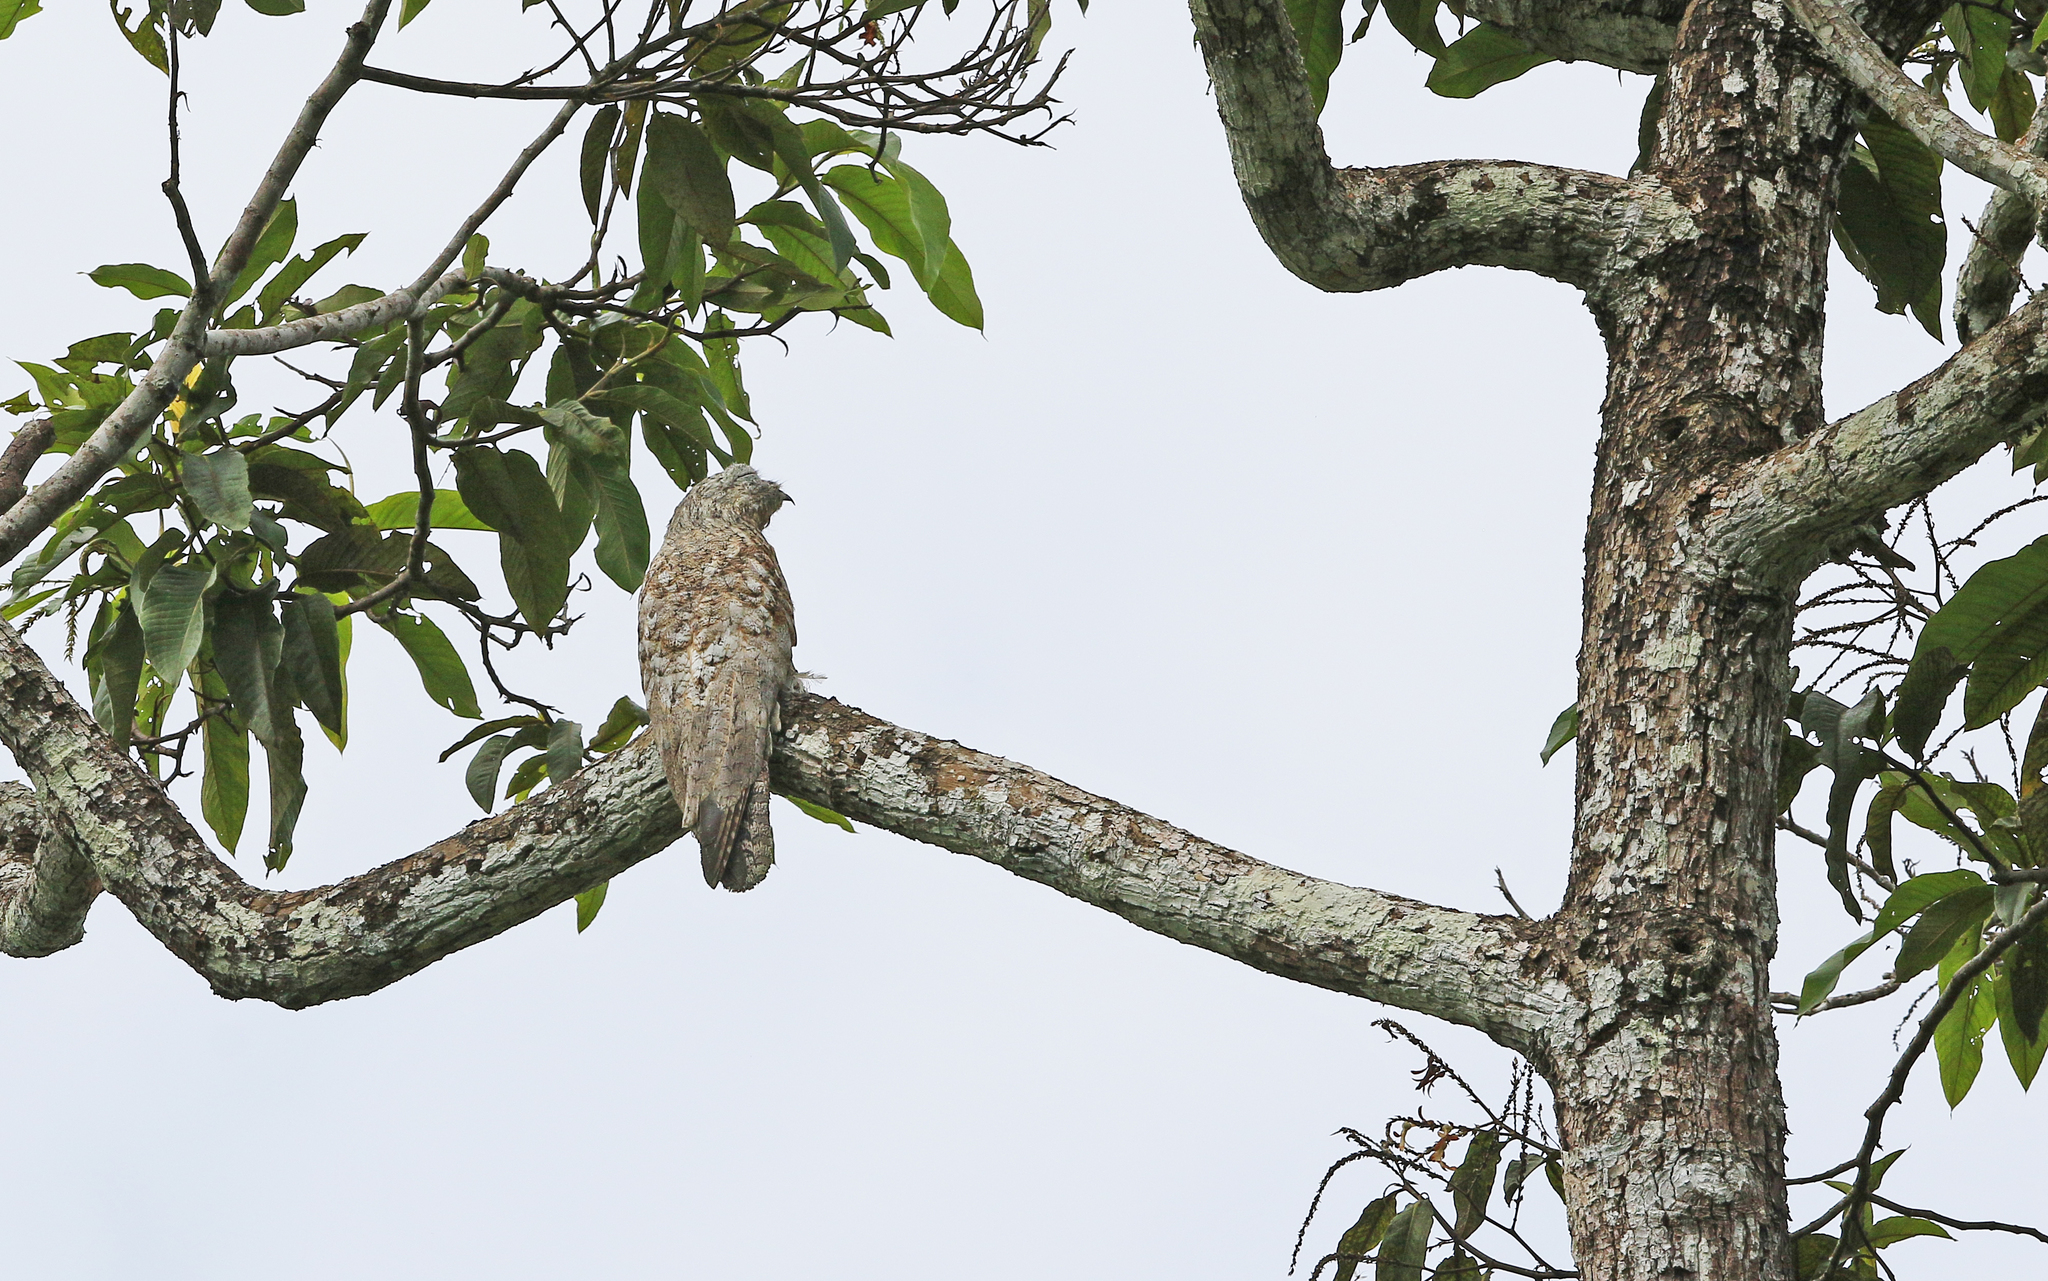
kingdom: Animalia
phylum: Chordata
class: Aves
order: Nyctibiiformes
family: Nyctibiidae
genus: Nyctibius
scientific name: Nyctibius grandis
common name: Great potoo
